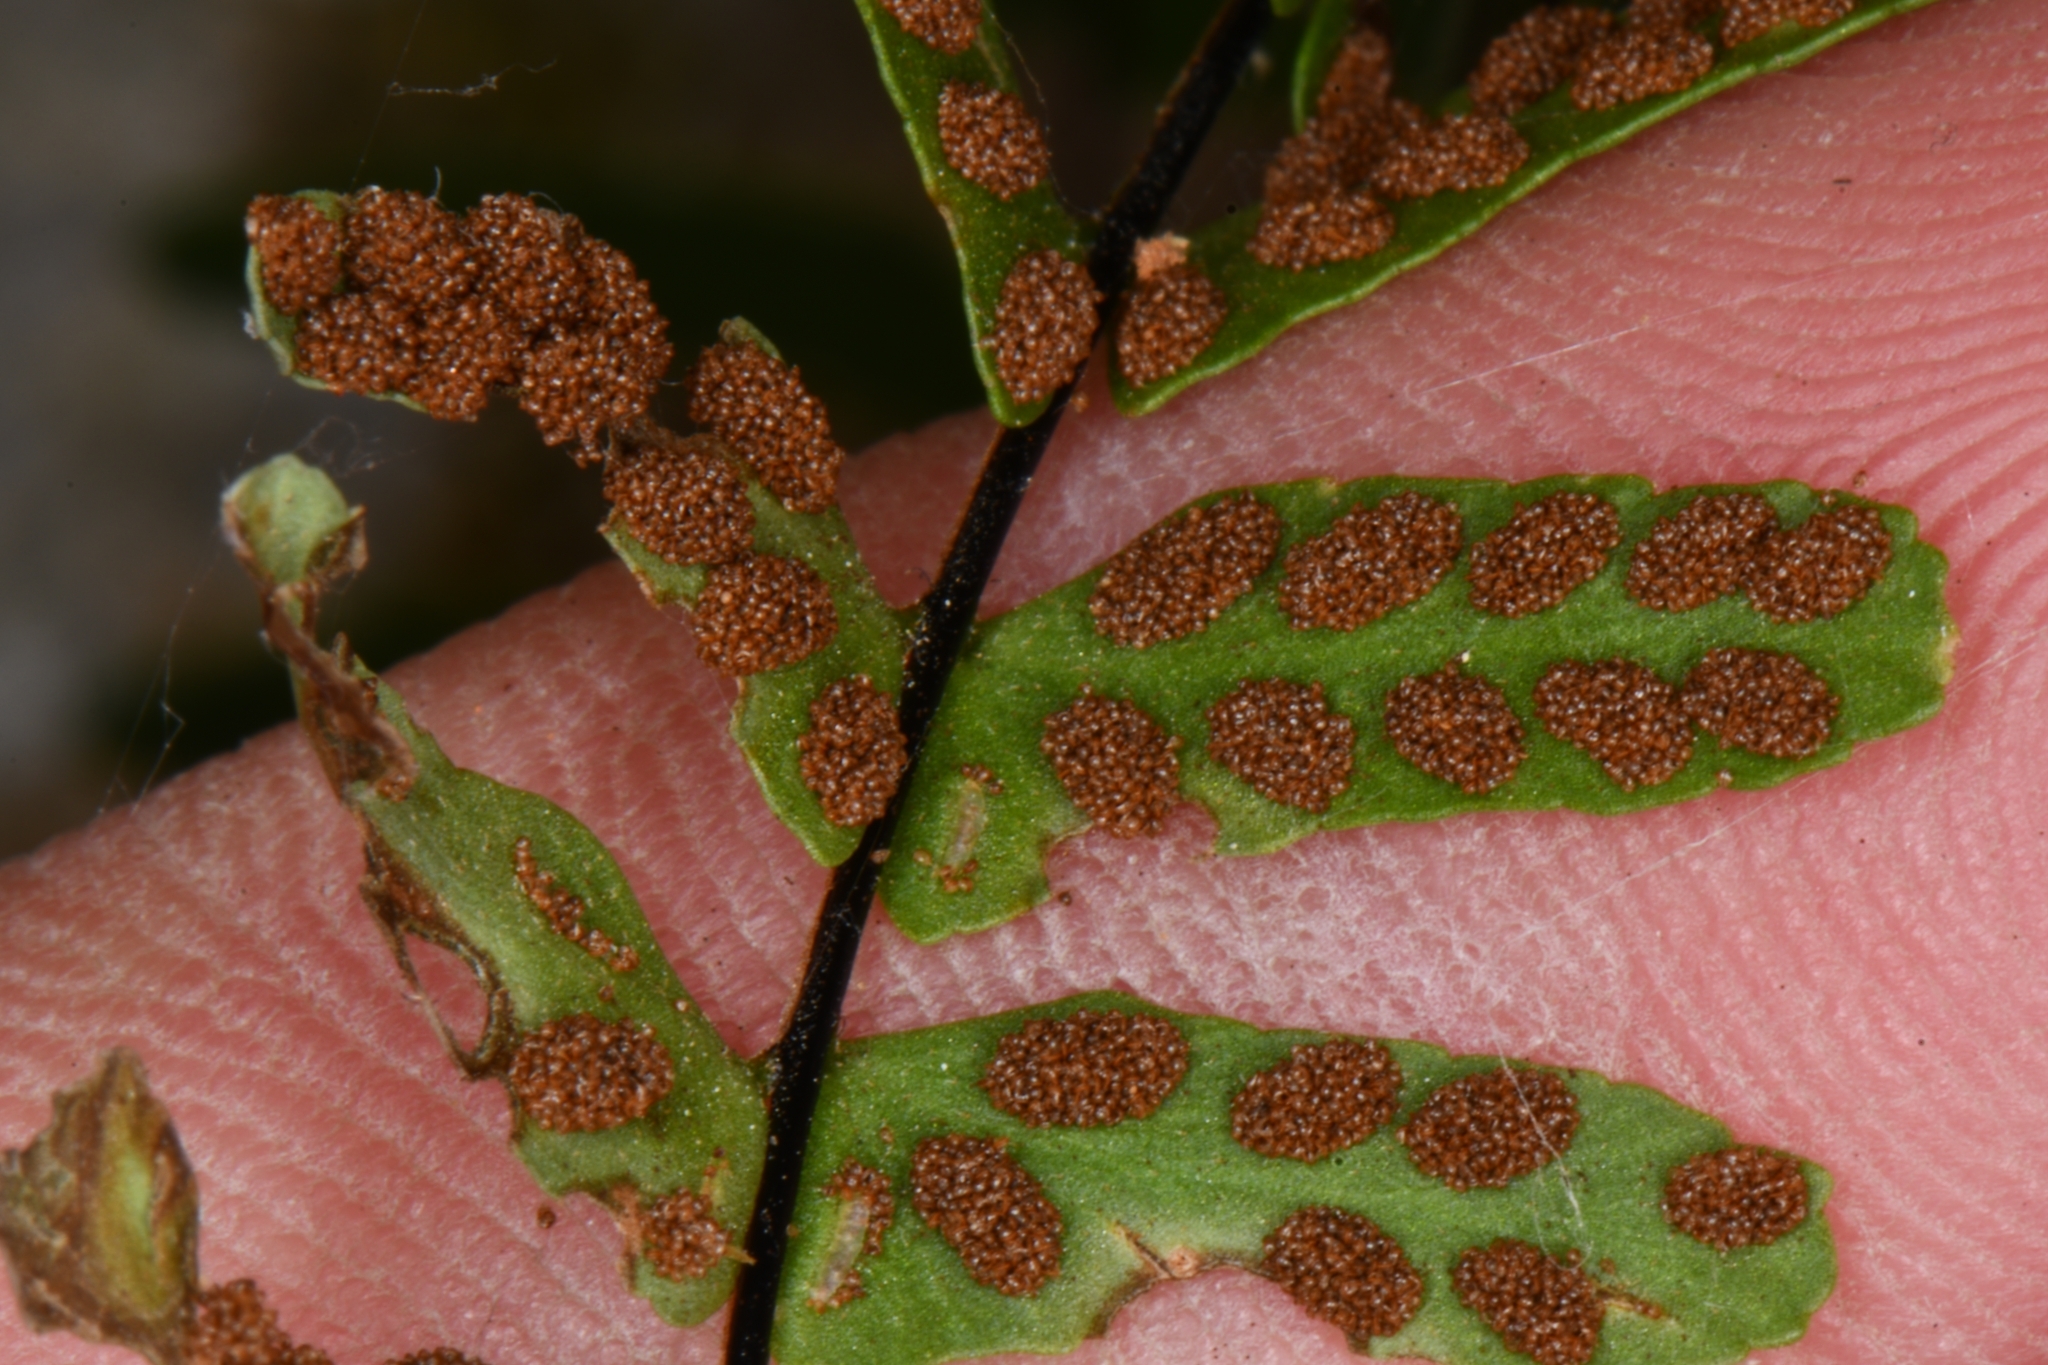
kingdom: Plantae
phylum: Tracheophyta
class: Polypodiopsida
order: Polypodiales
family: Aspleniaceae
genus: Asplenium
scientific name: Asplenium resiliens
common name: Blackstem spleenwort
